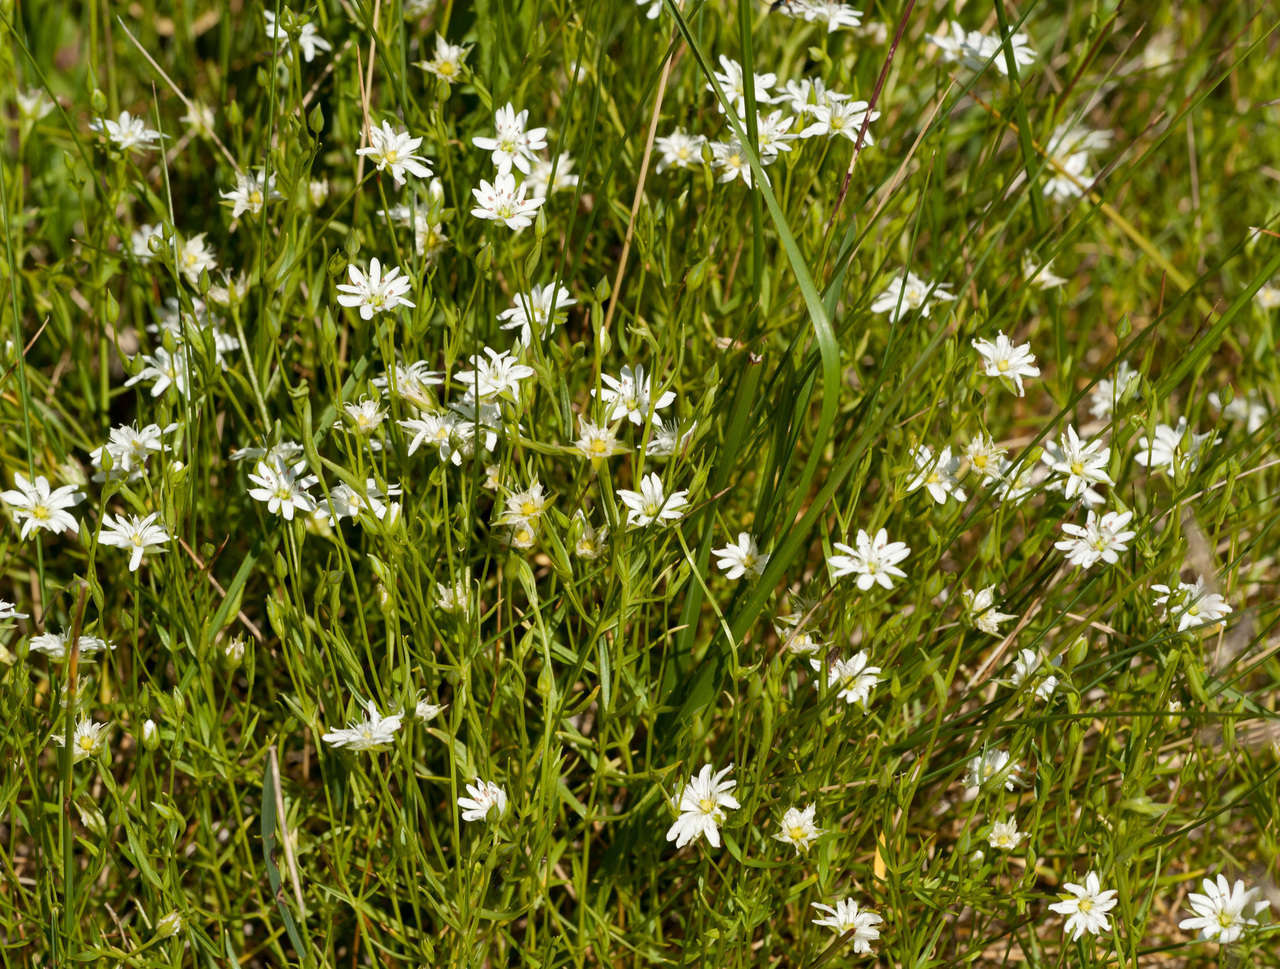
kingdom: Plantae
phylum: Tracheophyta
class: Magnoliopsida
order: Caryophyllales
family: Caryophyllaceae
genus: Stellaria
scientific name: Stellaria angustifolia
